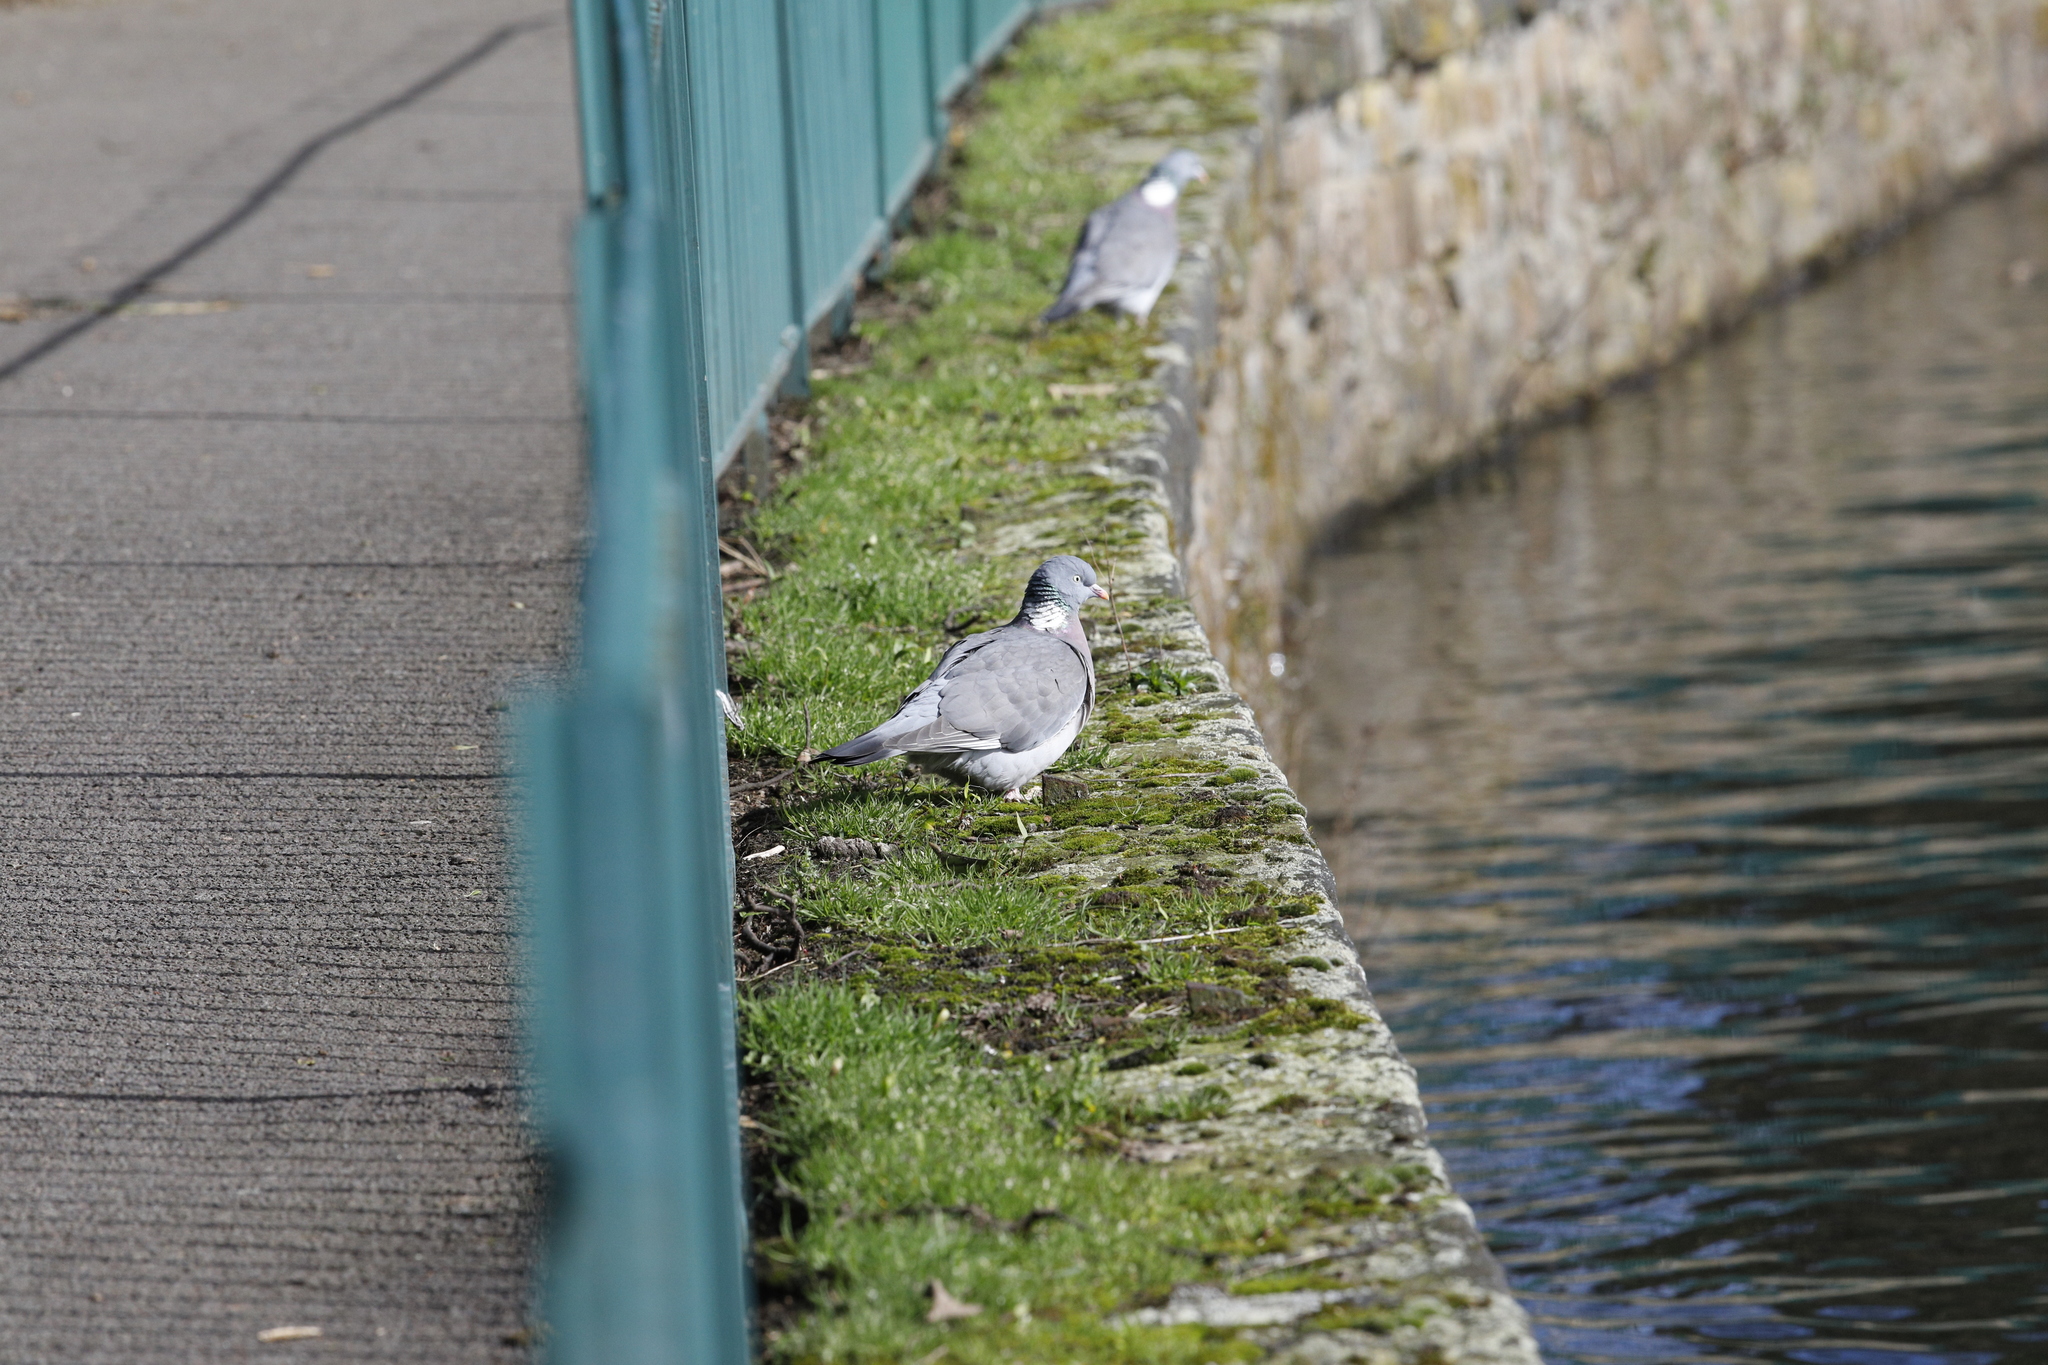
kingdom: Animalia
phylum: Chordata
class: Aves
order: Columbiformes
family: Columbidae
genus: Columba
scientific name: Columba palumbus
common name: Common wood pigeon
